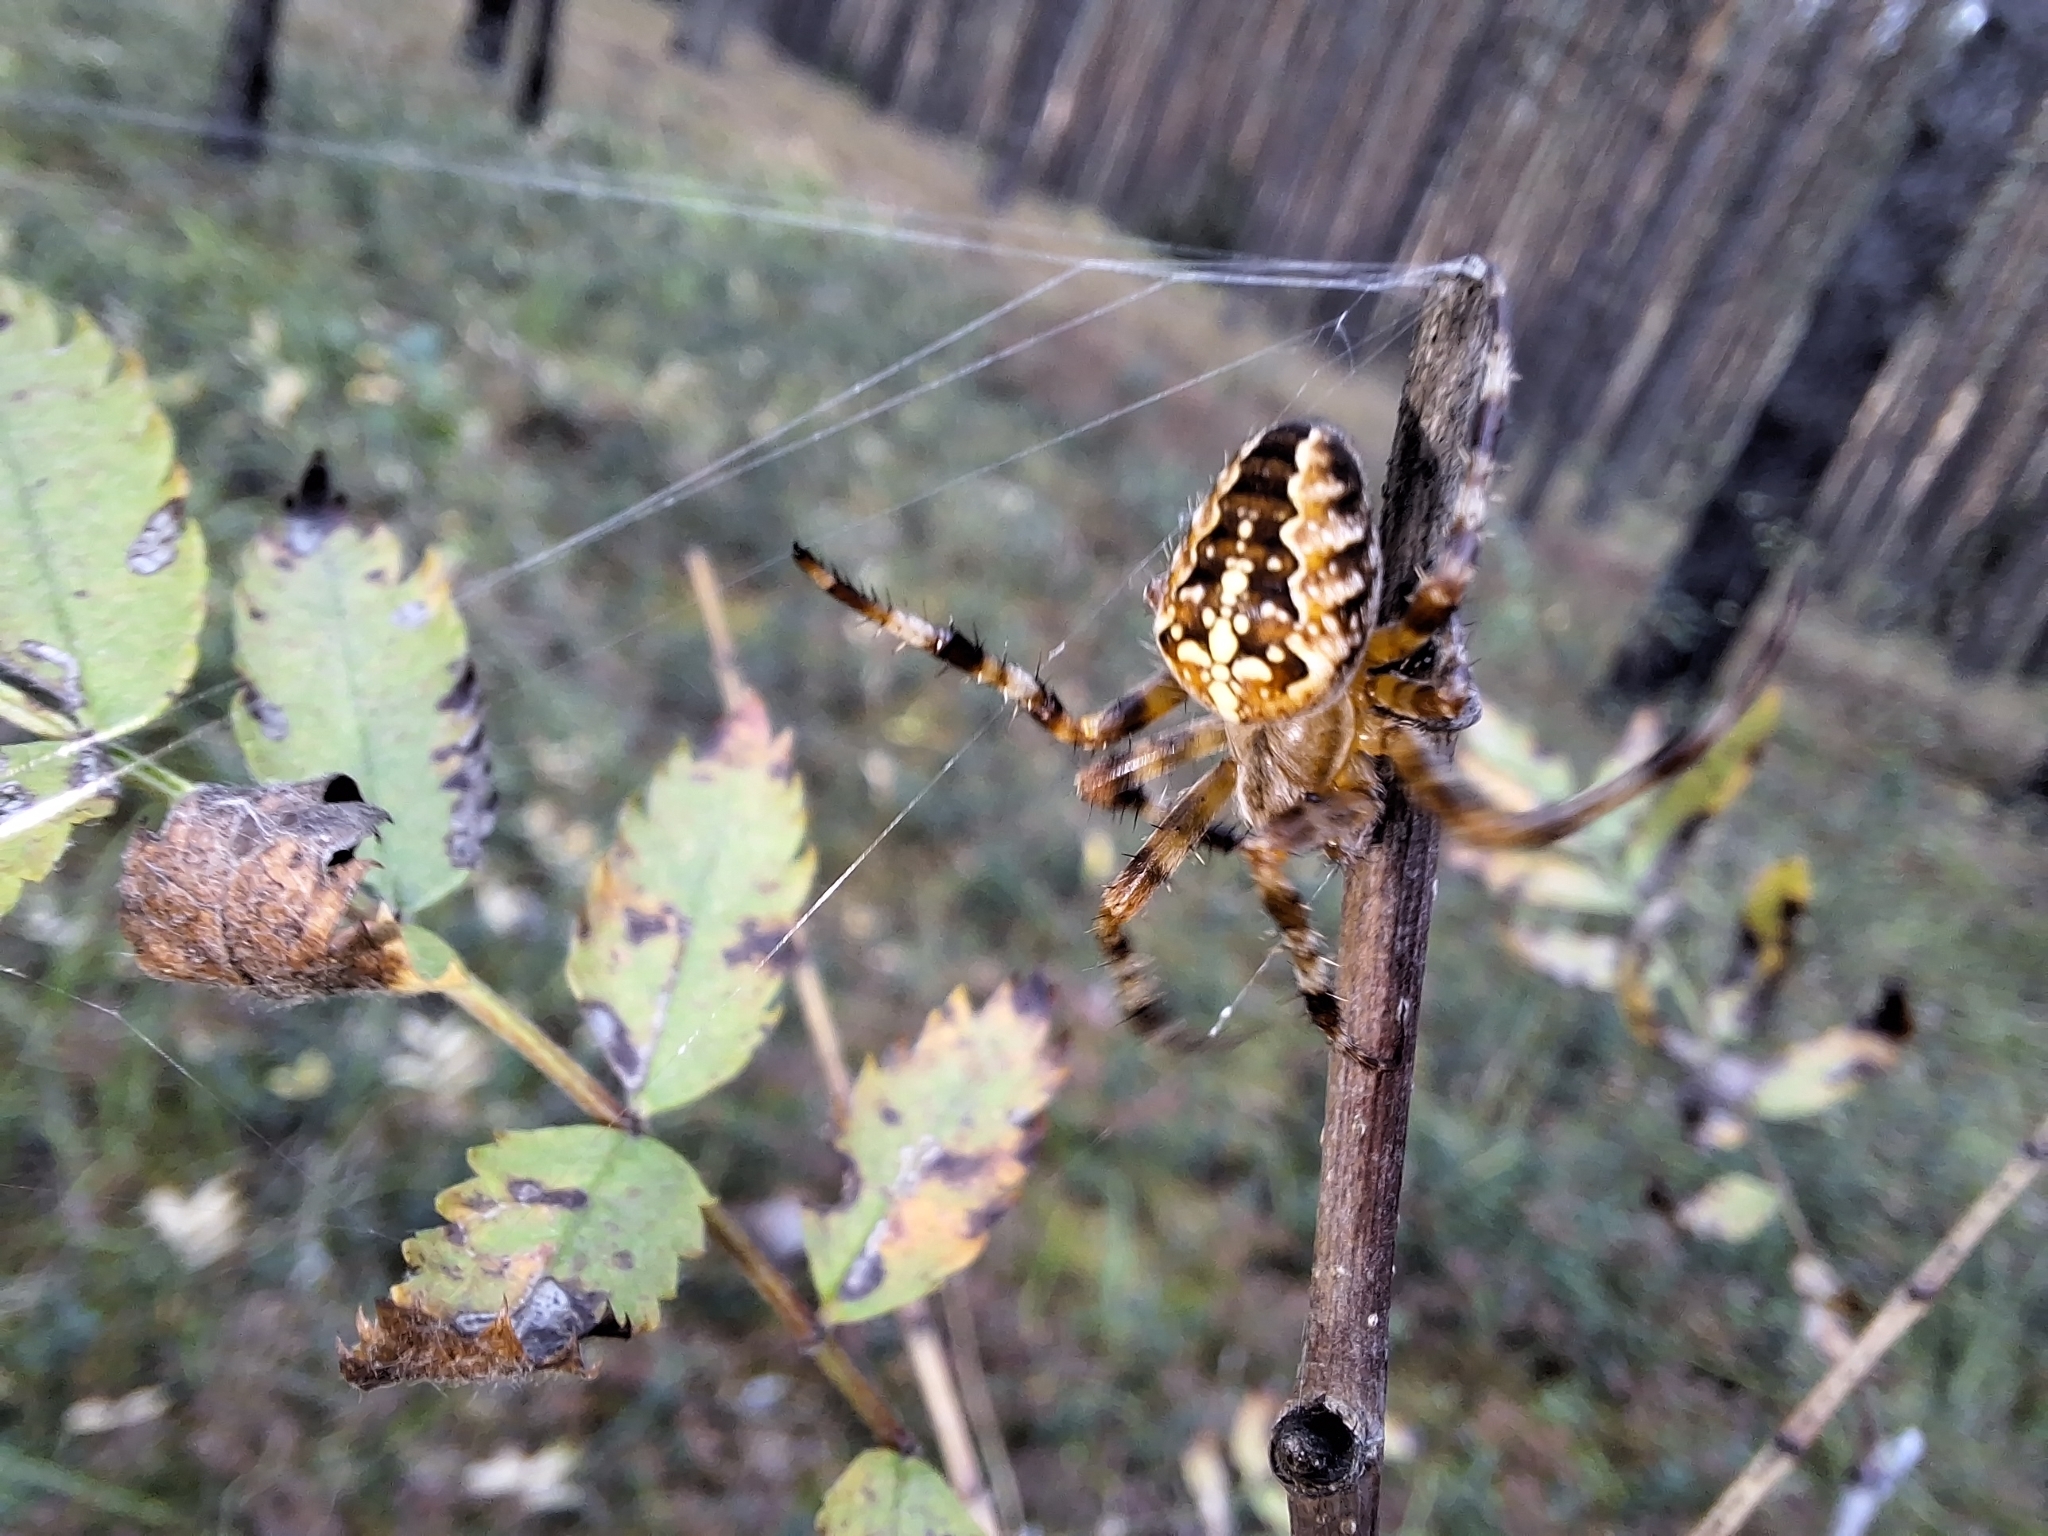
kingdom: Animalia
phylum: Arthropoda
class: Arachnida
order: Araneae
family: Araneidae
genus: Araneus
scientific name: Araneus diadematus
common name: Cross orbweaver
